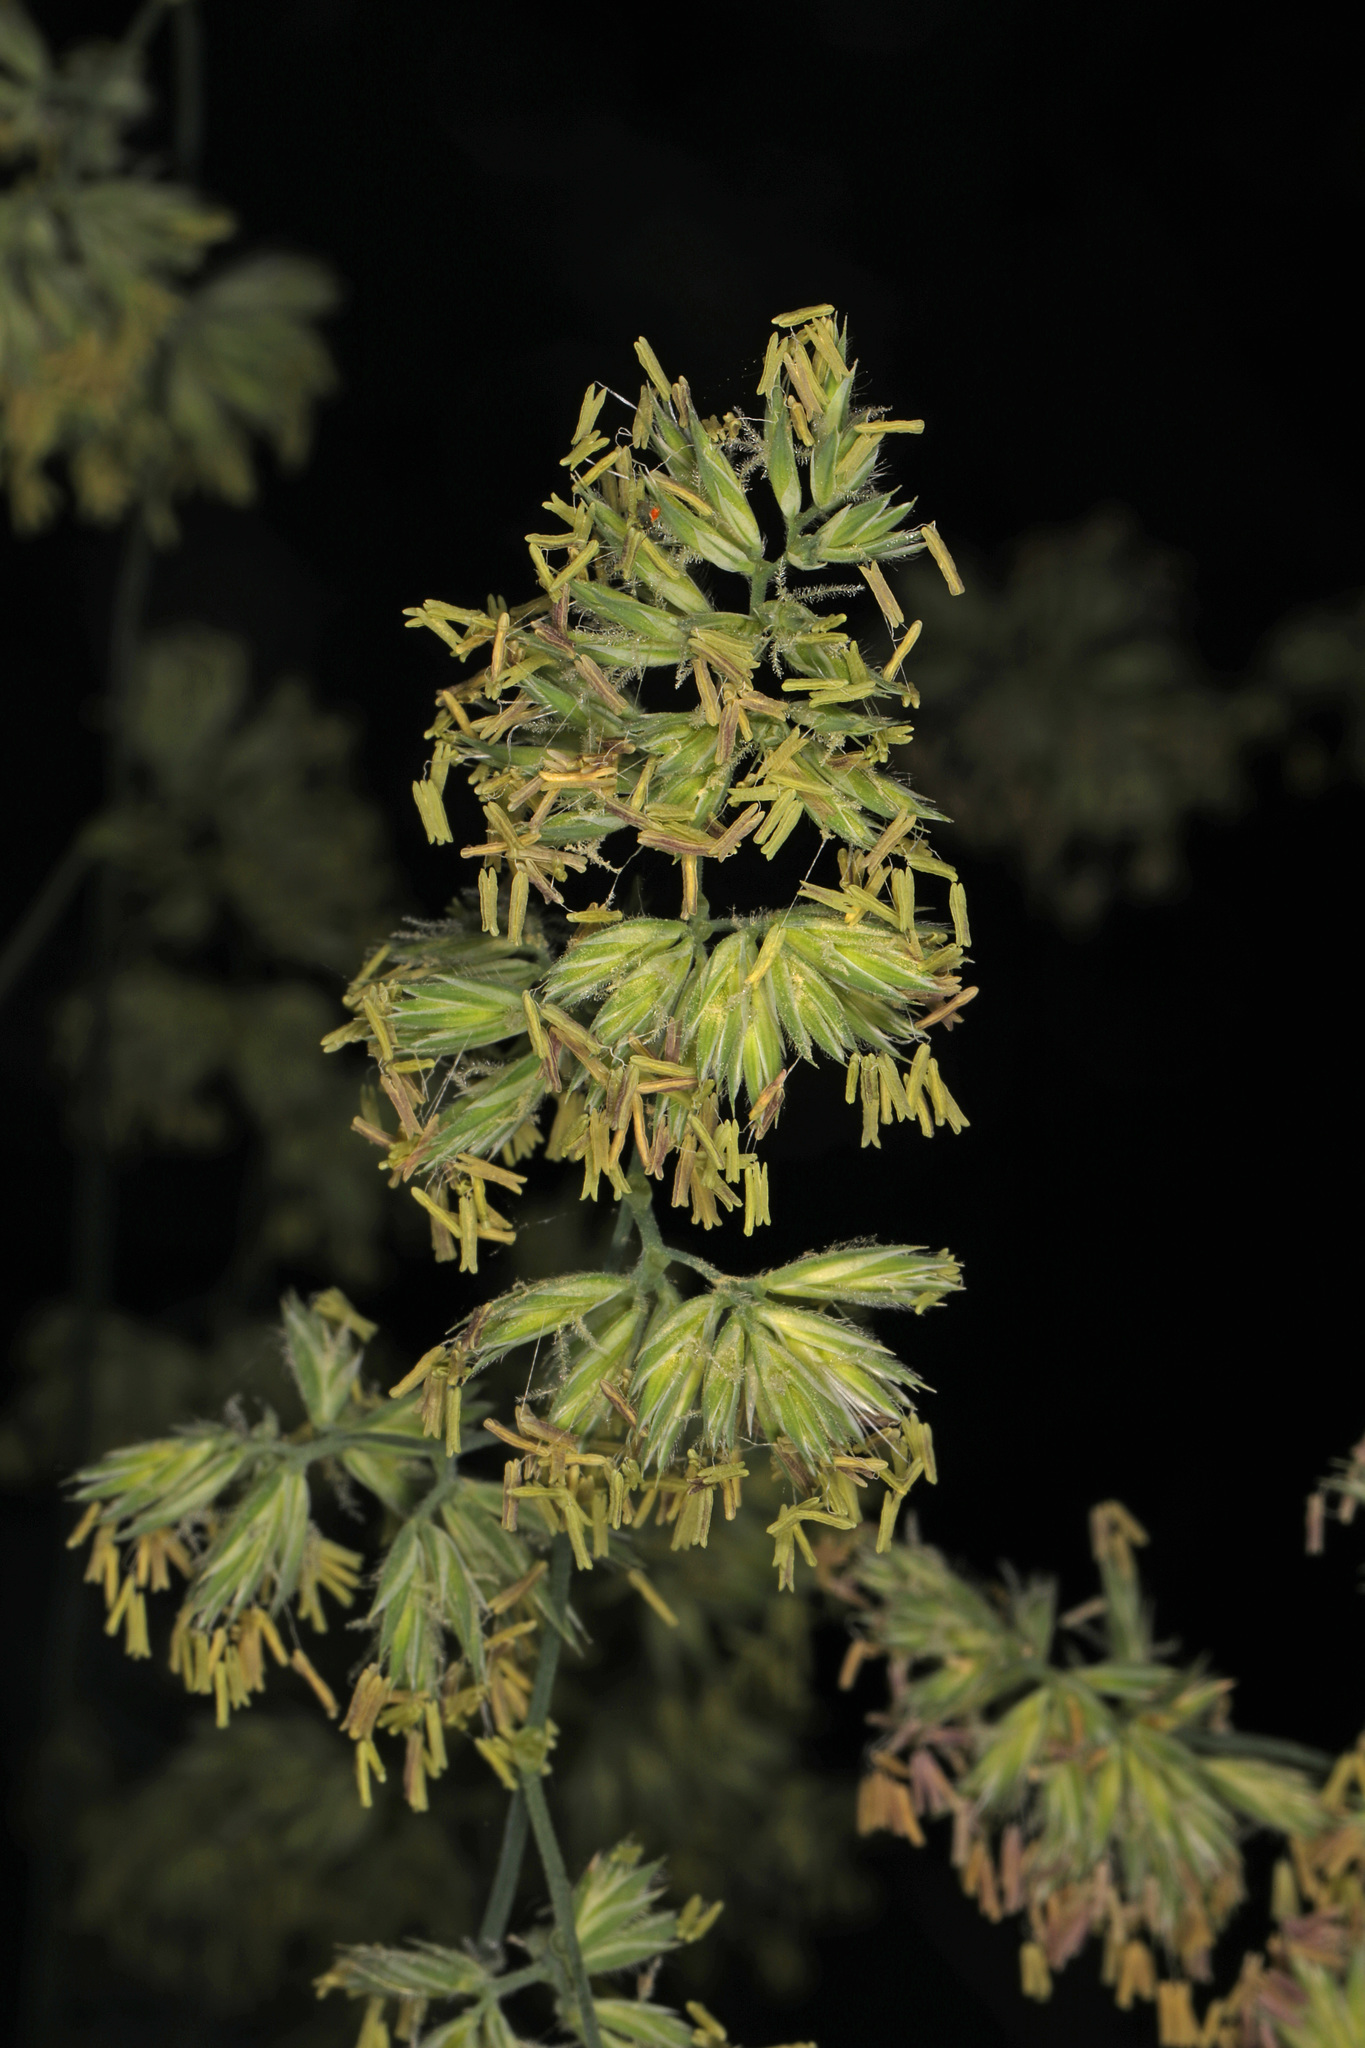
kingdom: Plantae
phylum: Tracheophyta
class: Liliopsida
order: Poales
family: Poaceae
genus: Dactylis
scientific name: Dactylis glomerata
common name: Orchardgrass
